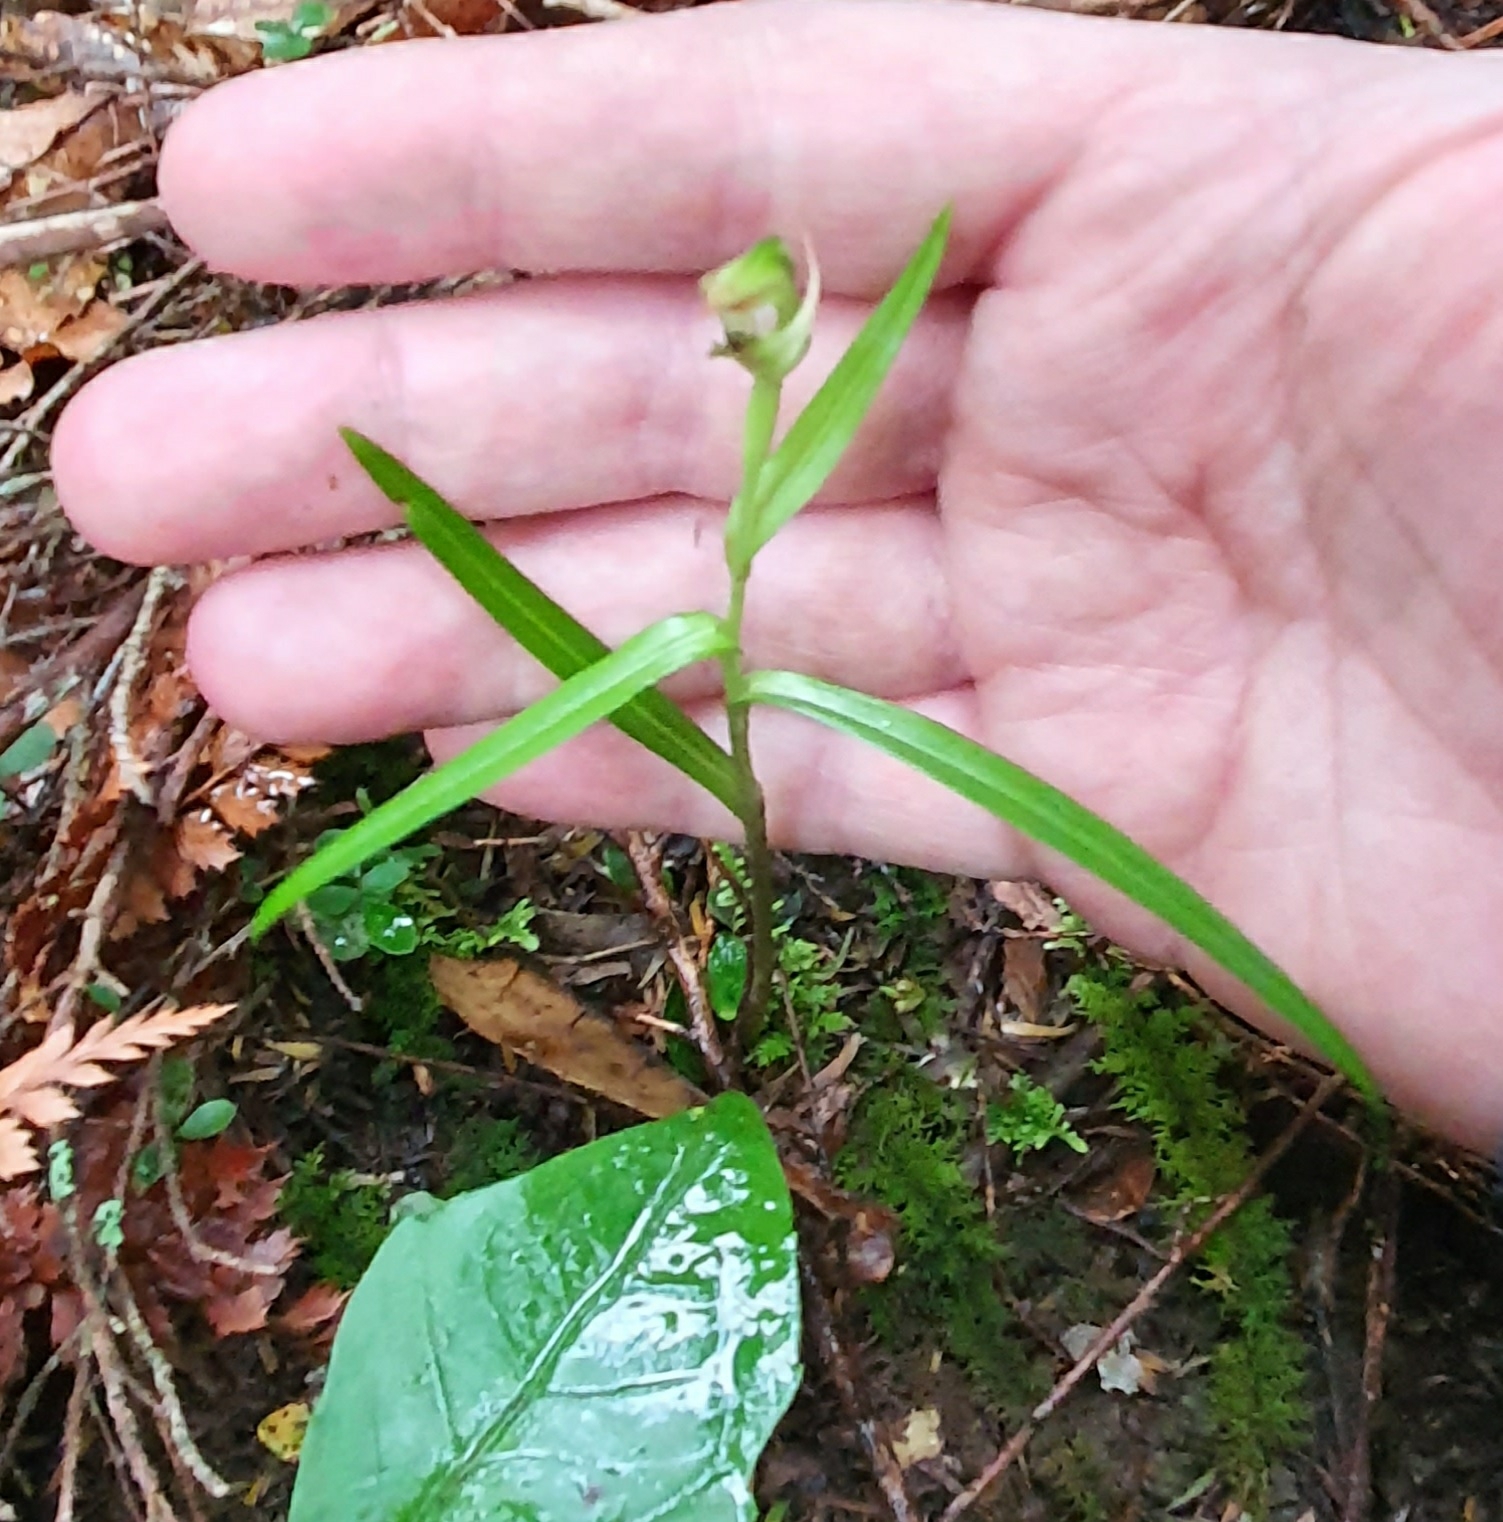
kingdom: Plantae
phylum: Tracheophyta
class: Liliopsida
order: Asparagales
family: Orchidaceae
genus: Pterostylis
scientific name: Pterostylis graminea
